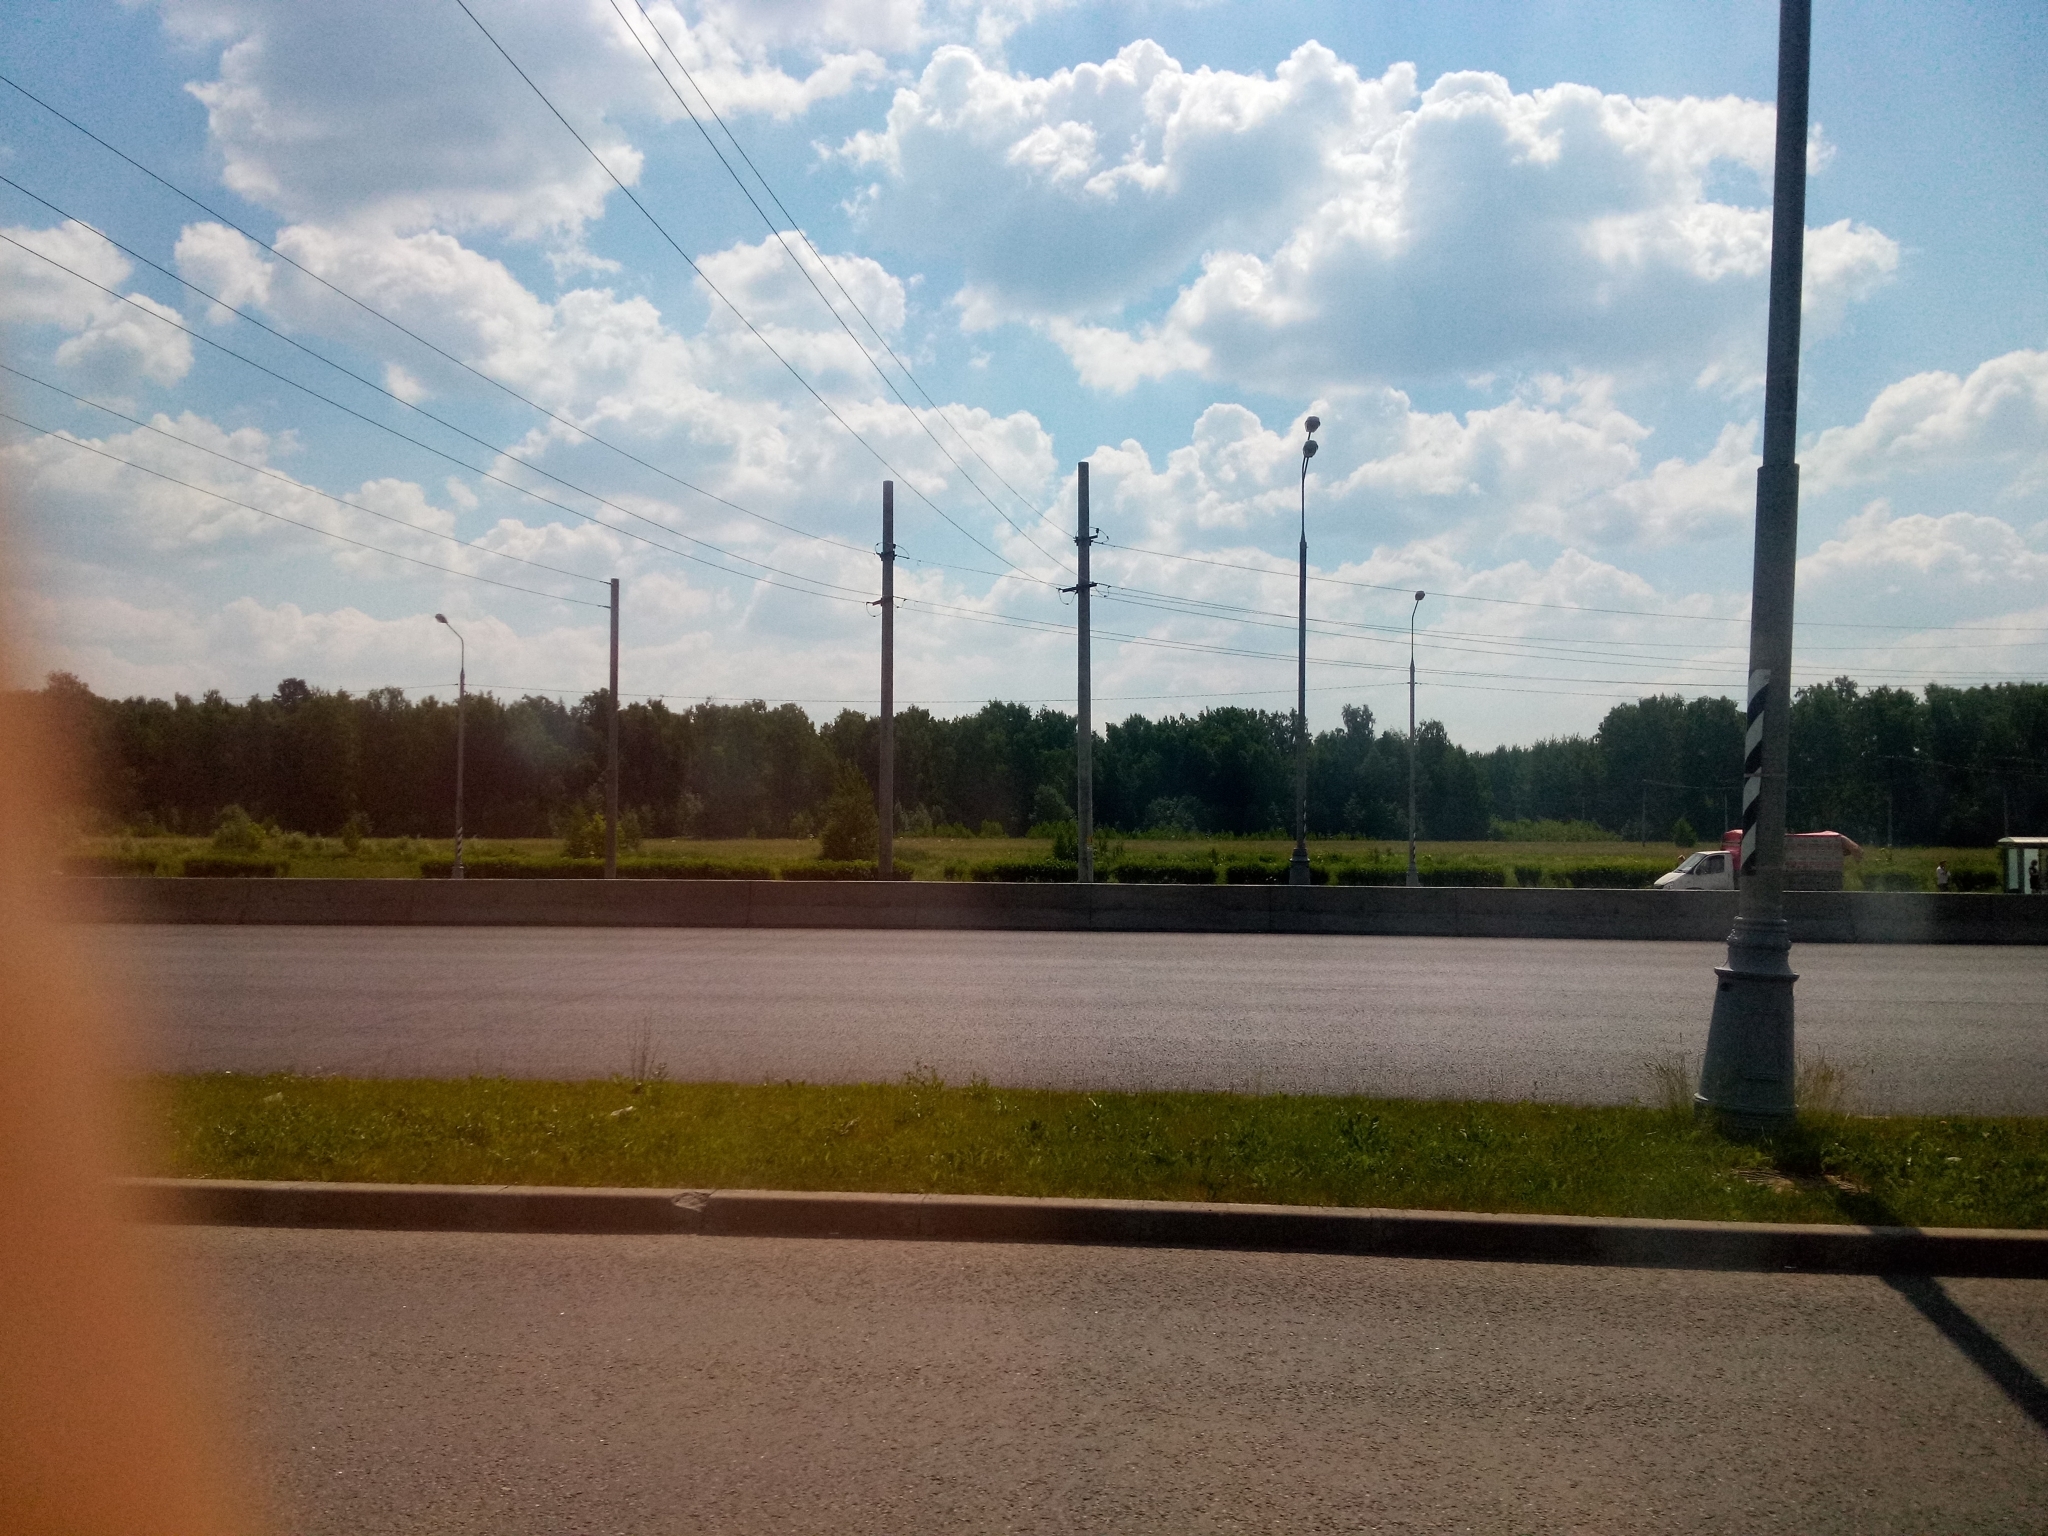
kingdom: Plantae
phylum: Tracheophyta
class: Magnoliopsida
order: Apiales
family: Apiaceae
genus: Heracleum
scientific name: Heracleum sosnowskyi
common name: Sosnowsky's hogweed
